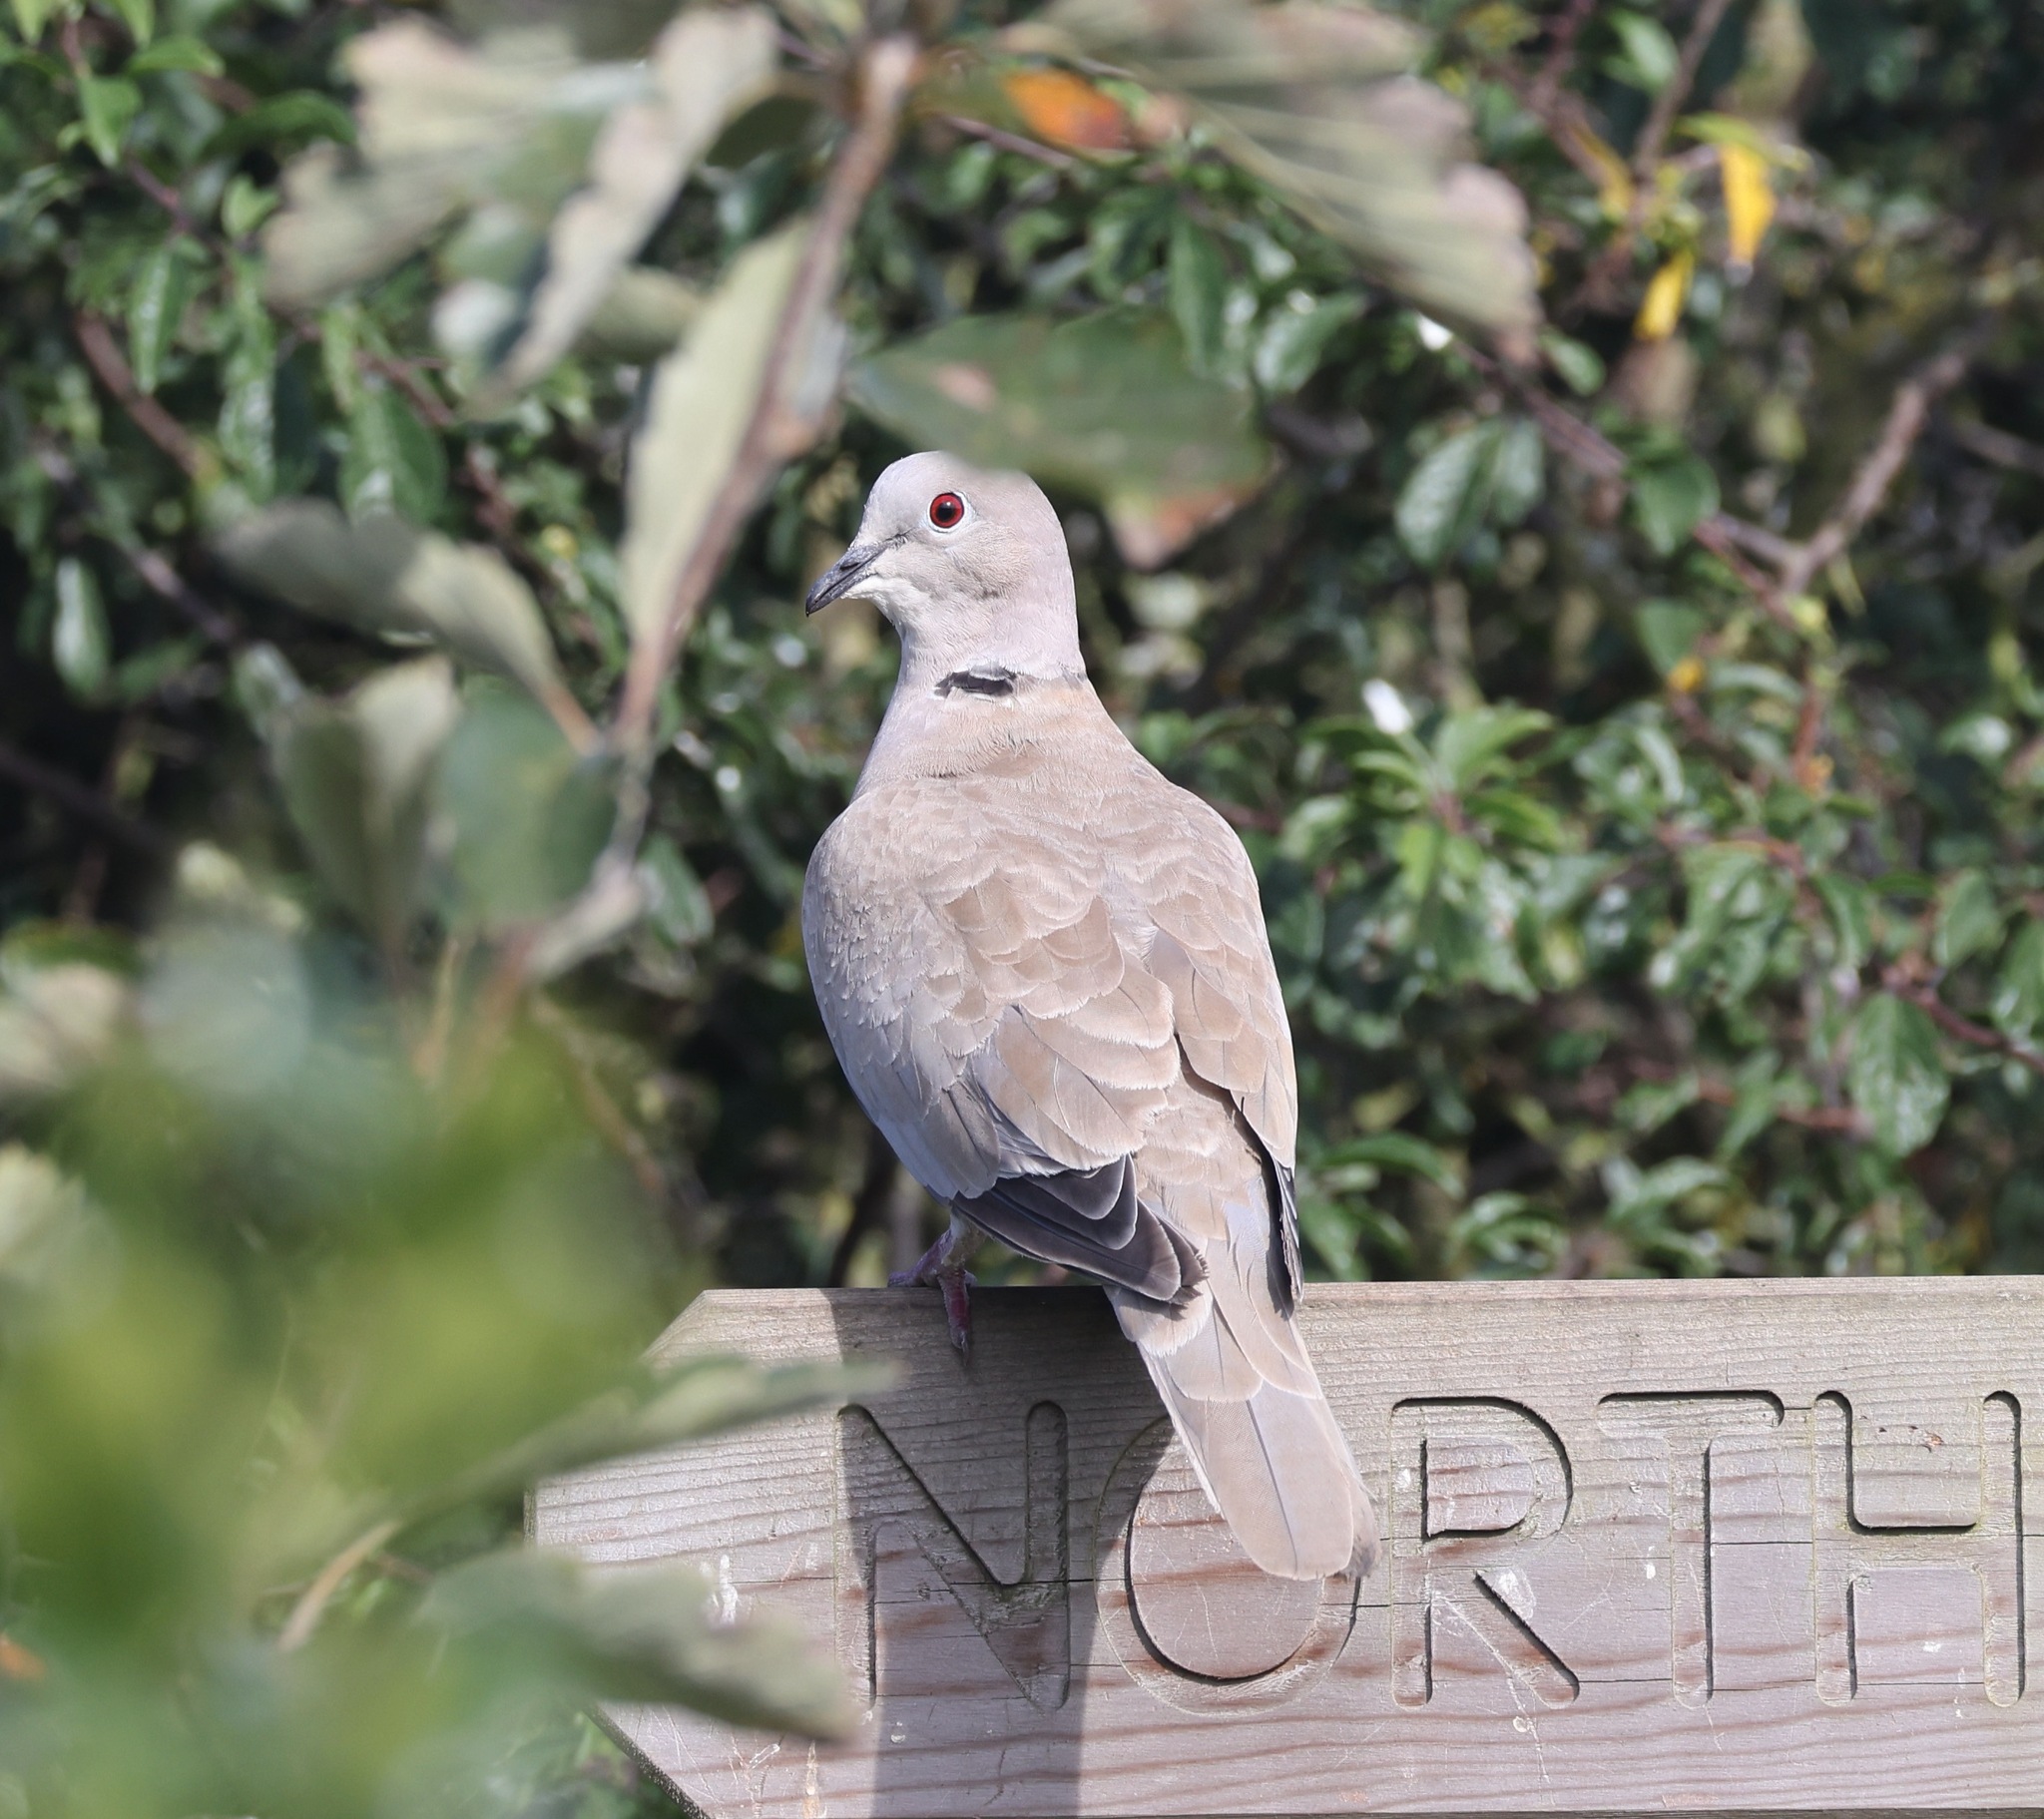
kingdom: Animalia
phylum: Chordata
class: Aves
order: Columbiformes
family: Columbidae
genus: Streptopelia
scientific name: Streptopelia decaocto
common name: Eurasian collared dove
